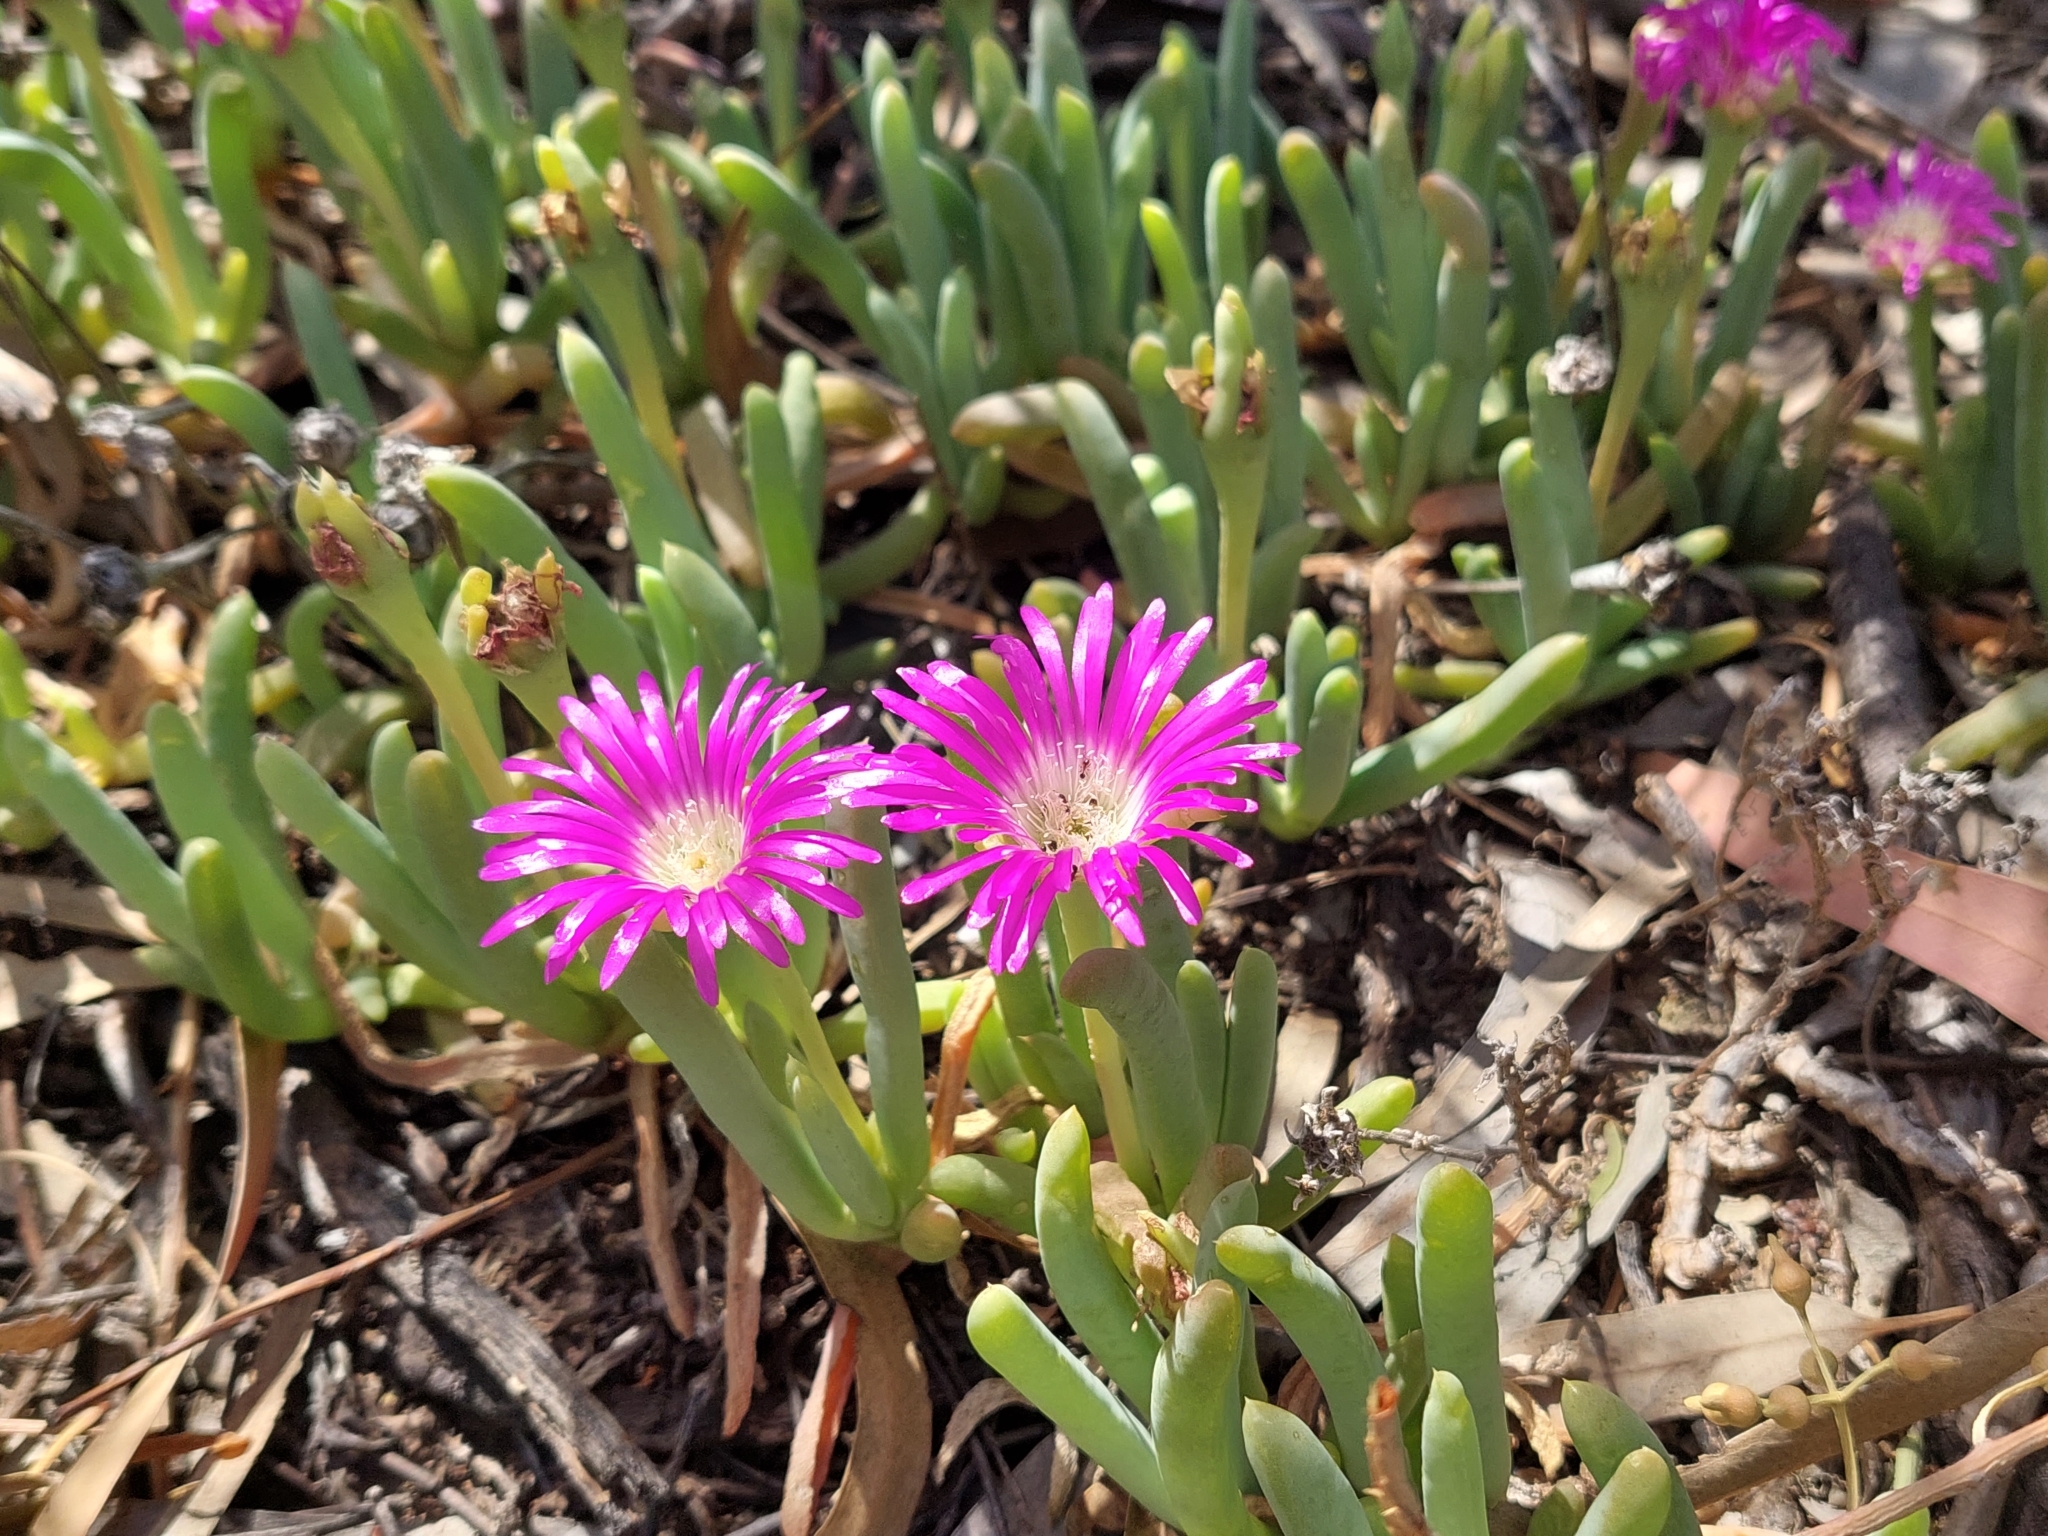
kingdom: Plantae
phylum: Tracheophyta
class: Magnoliopsida
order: Caryophyllales
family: Aizoaceae
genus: Disphyma
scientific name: Disphyma crassifolium
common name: Purple dewplant
